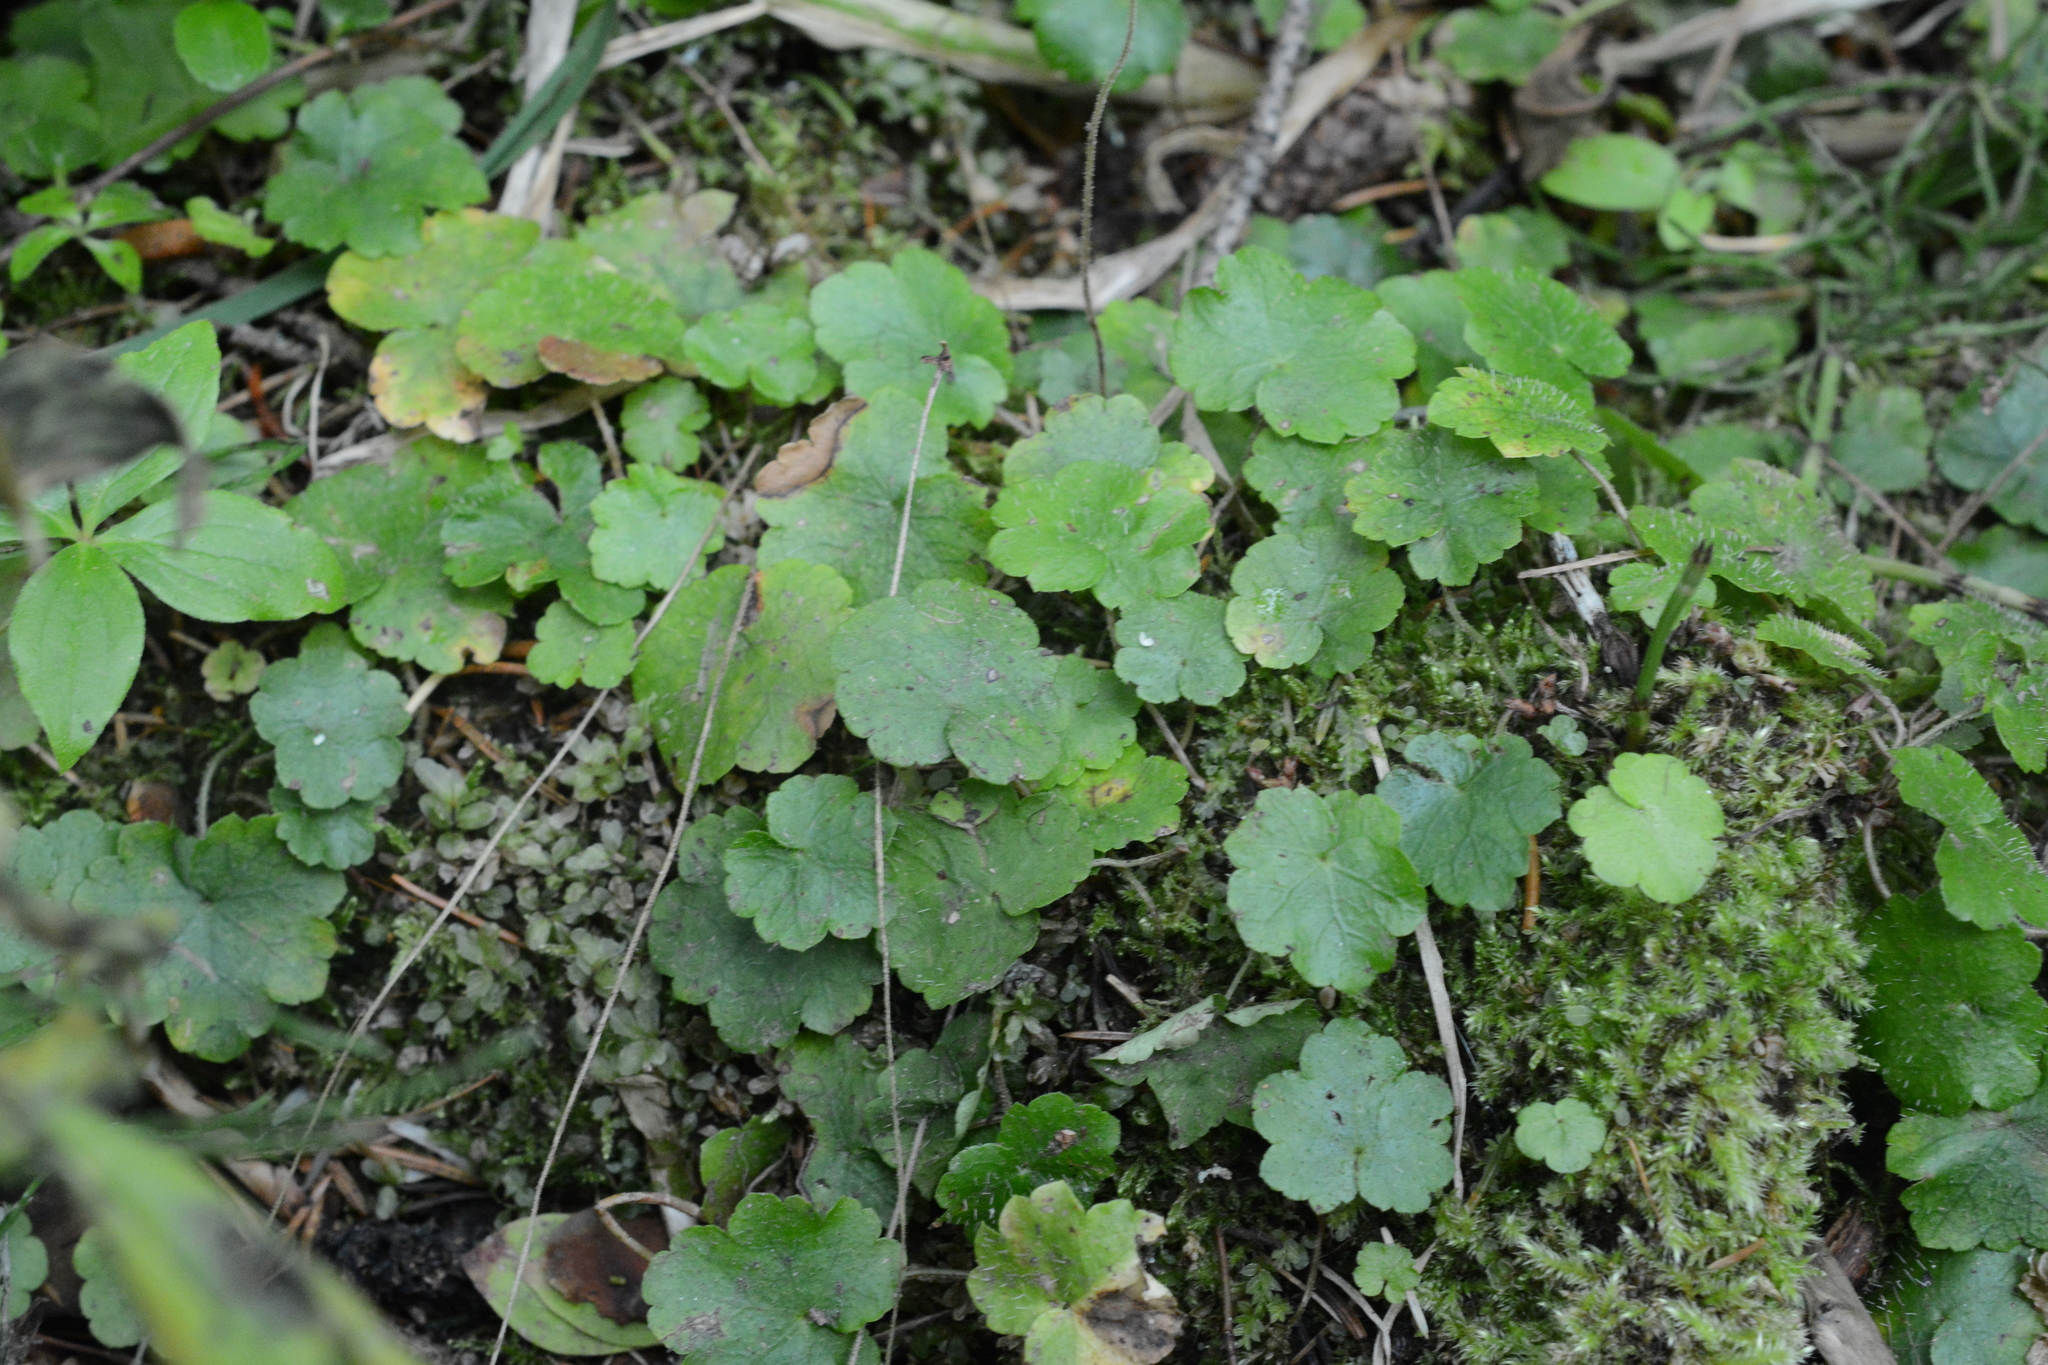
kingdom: Plantae
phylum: Tracheophyta
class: Magnoliopsida
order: Saxifragales
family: Saxifragaceae
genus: Mitella
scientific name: Mitella nuda
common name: Bare-stemmed bishop's-cap
